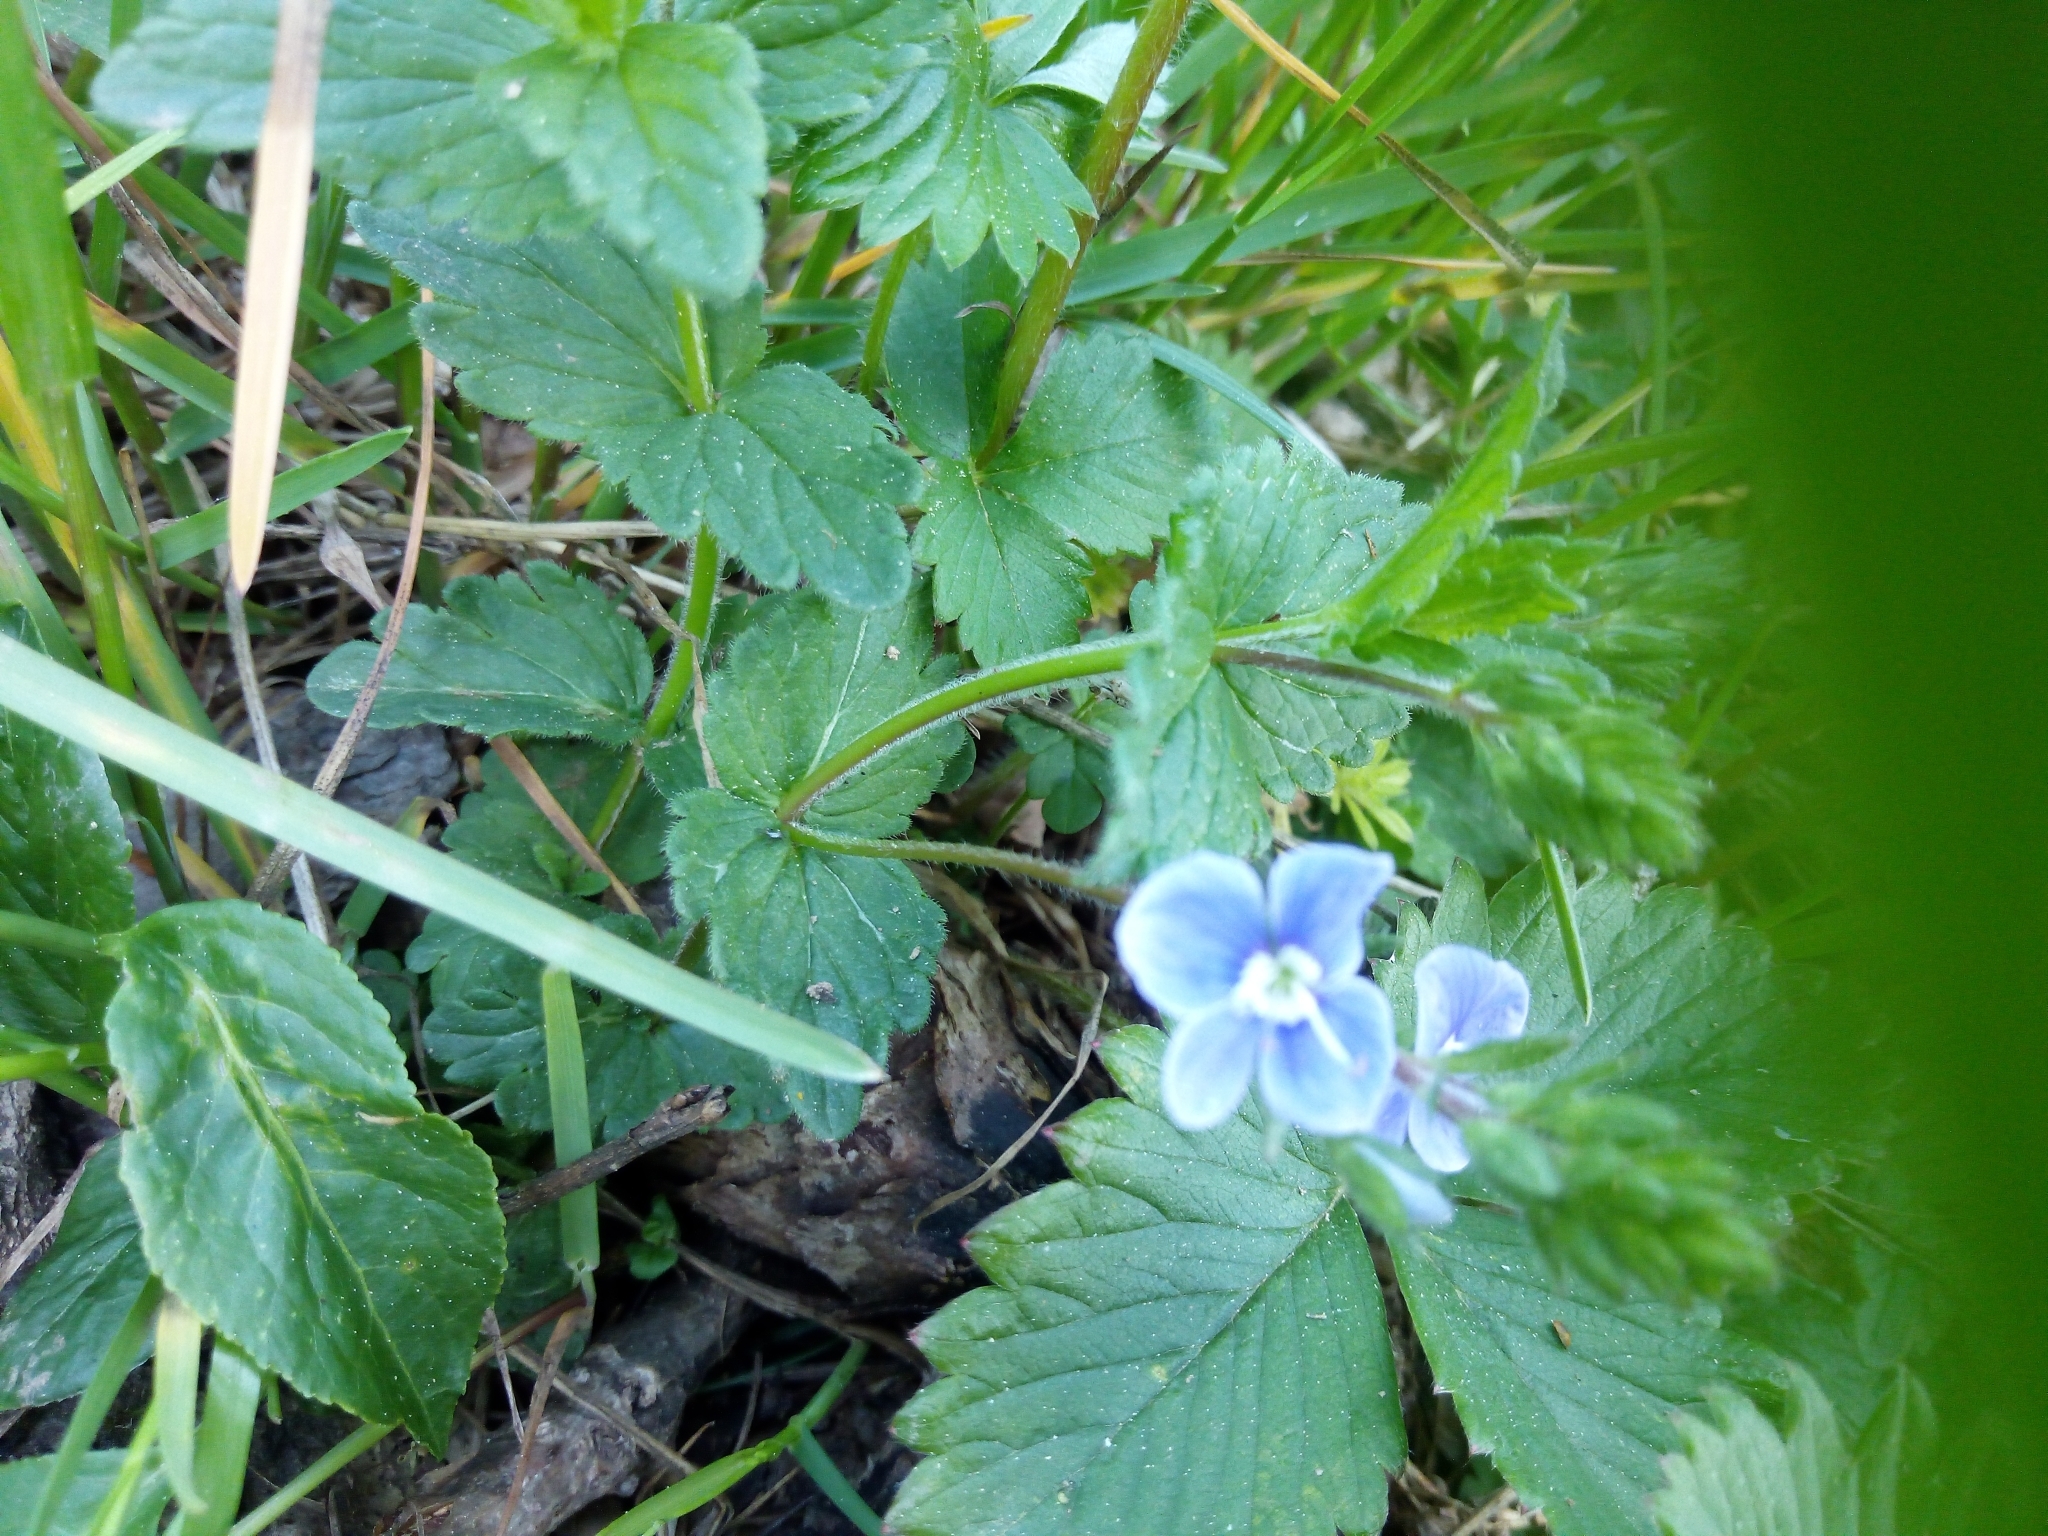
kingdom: Plantae
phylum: Tracheophyta
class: Magnoliopsida
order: Lamiales
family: Plantaginaceae
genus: Veronica
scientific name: Veronica chamaedrys
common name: Germander speedwell
